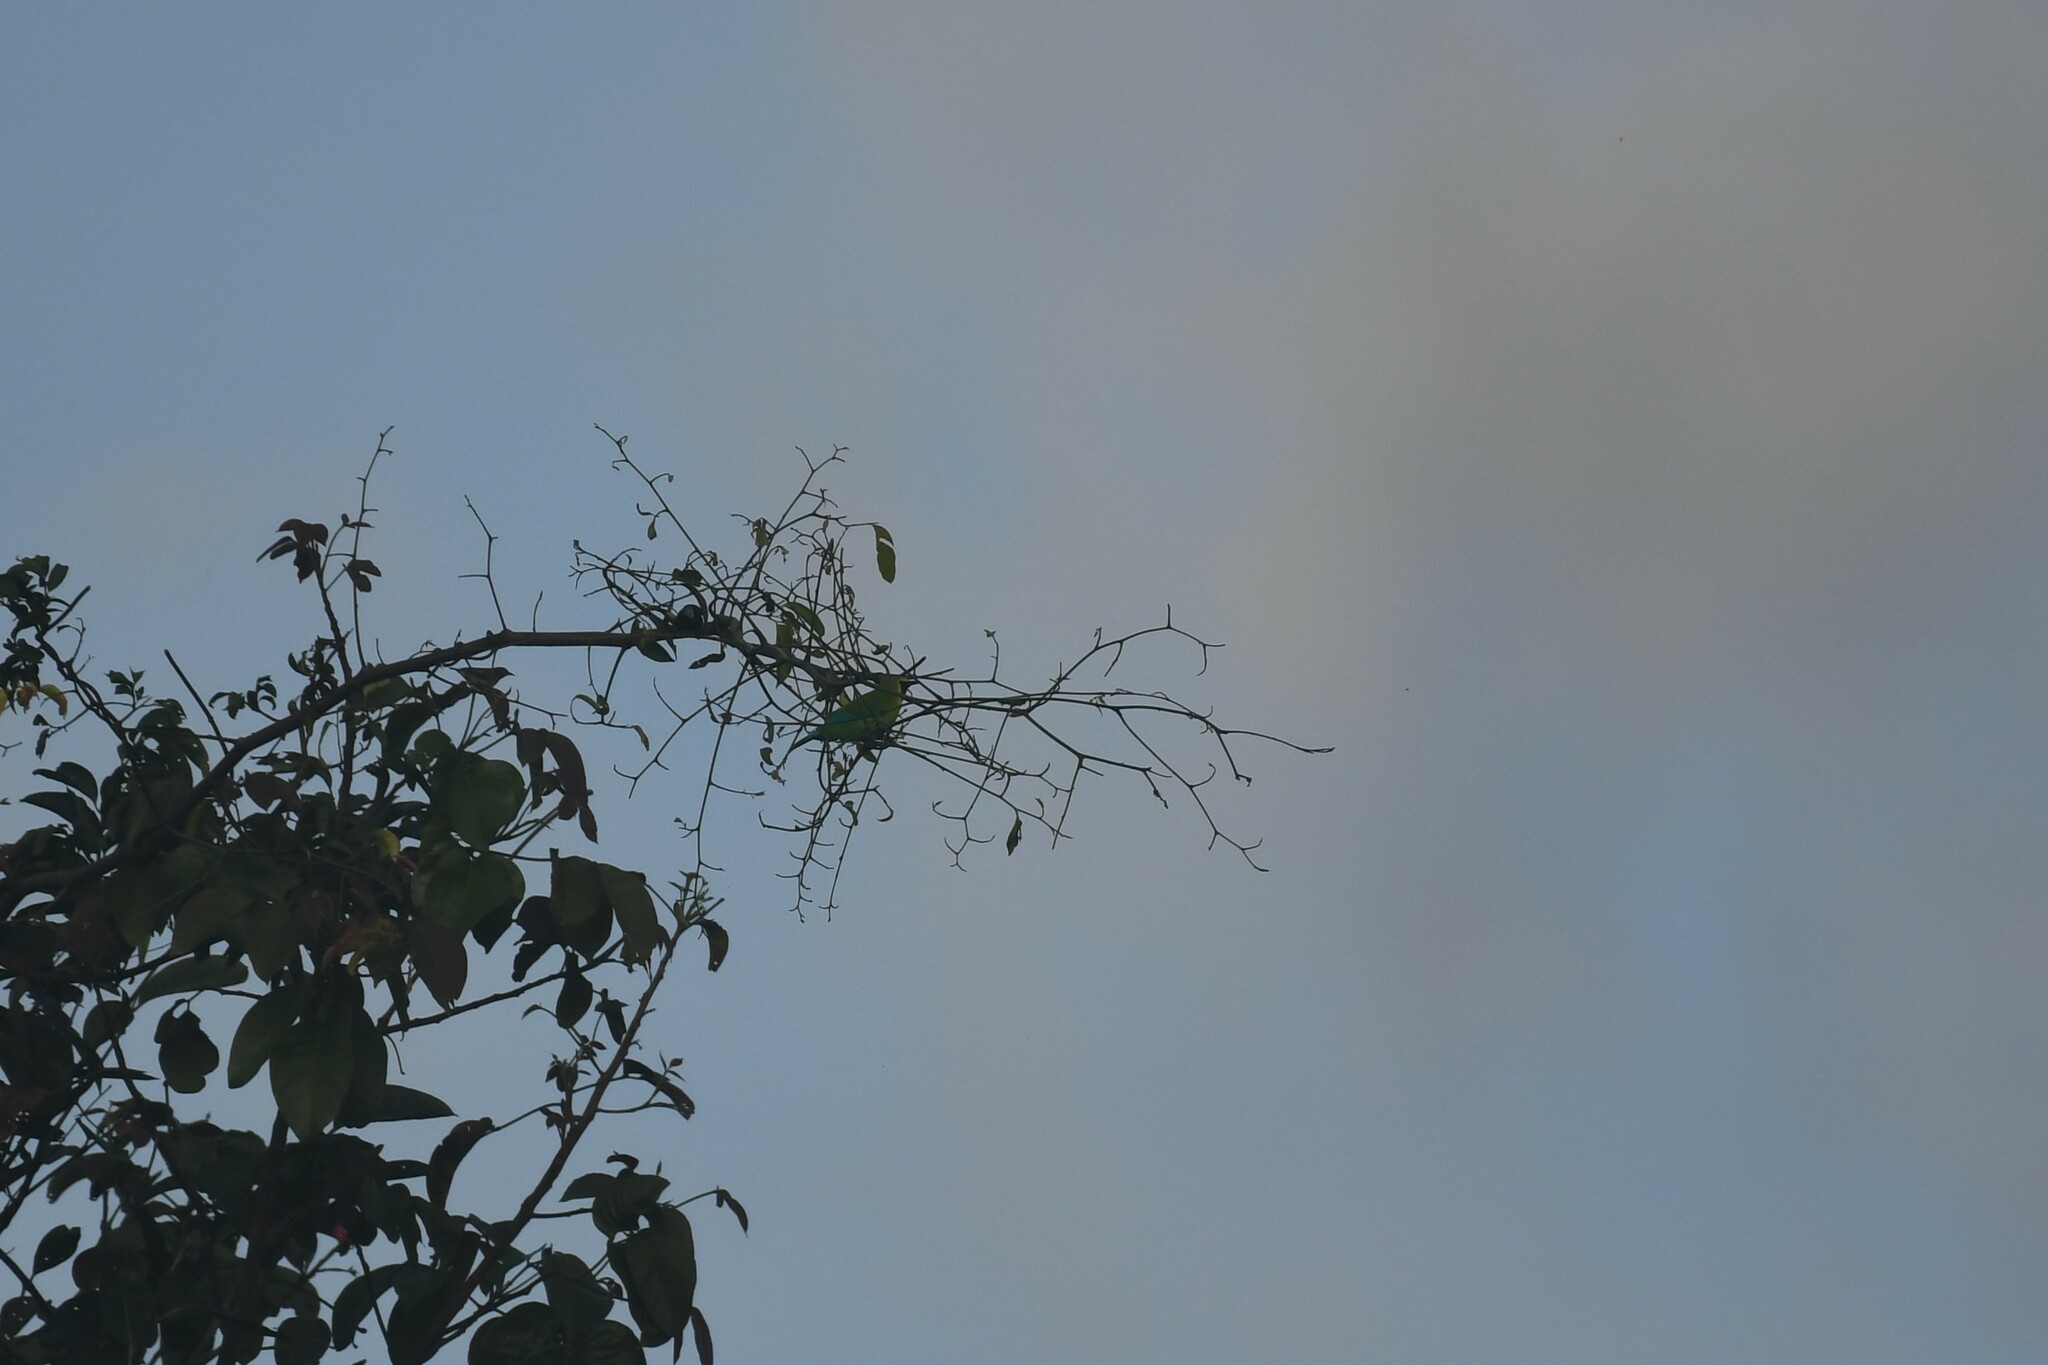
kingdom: Animalia
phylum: Chordata
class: Aves
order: Passeriformes
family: Chloropseidae
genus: Chloropsis
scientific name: Chloropsis moluccensis
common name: Blue-winged leafbird
